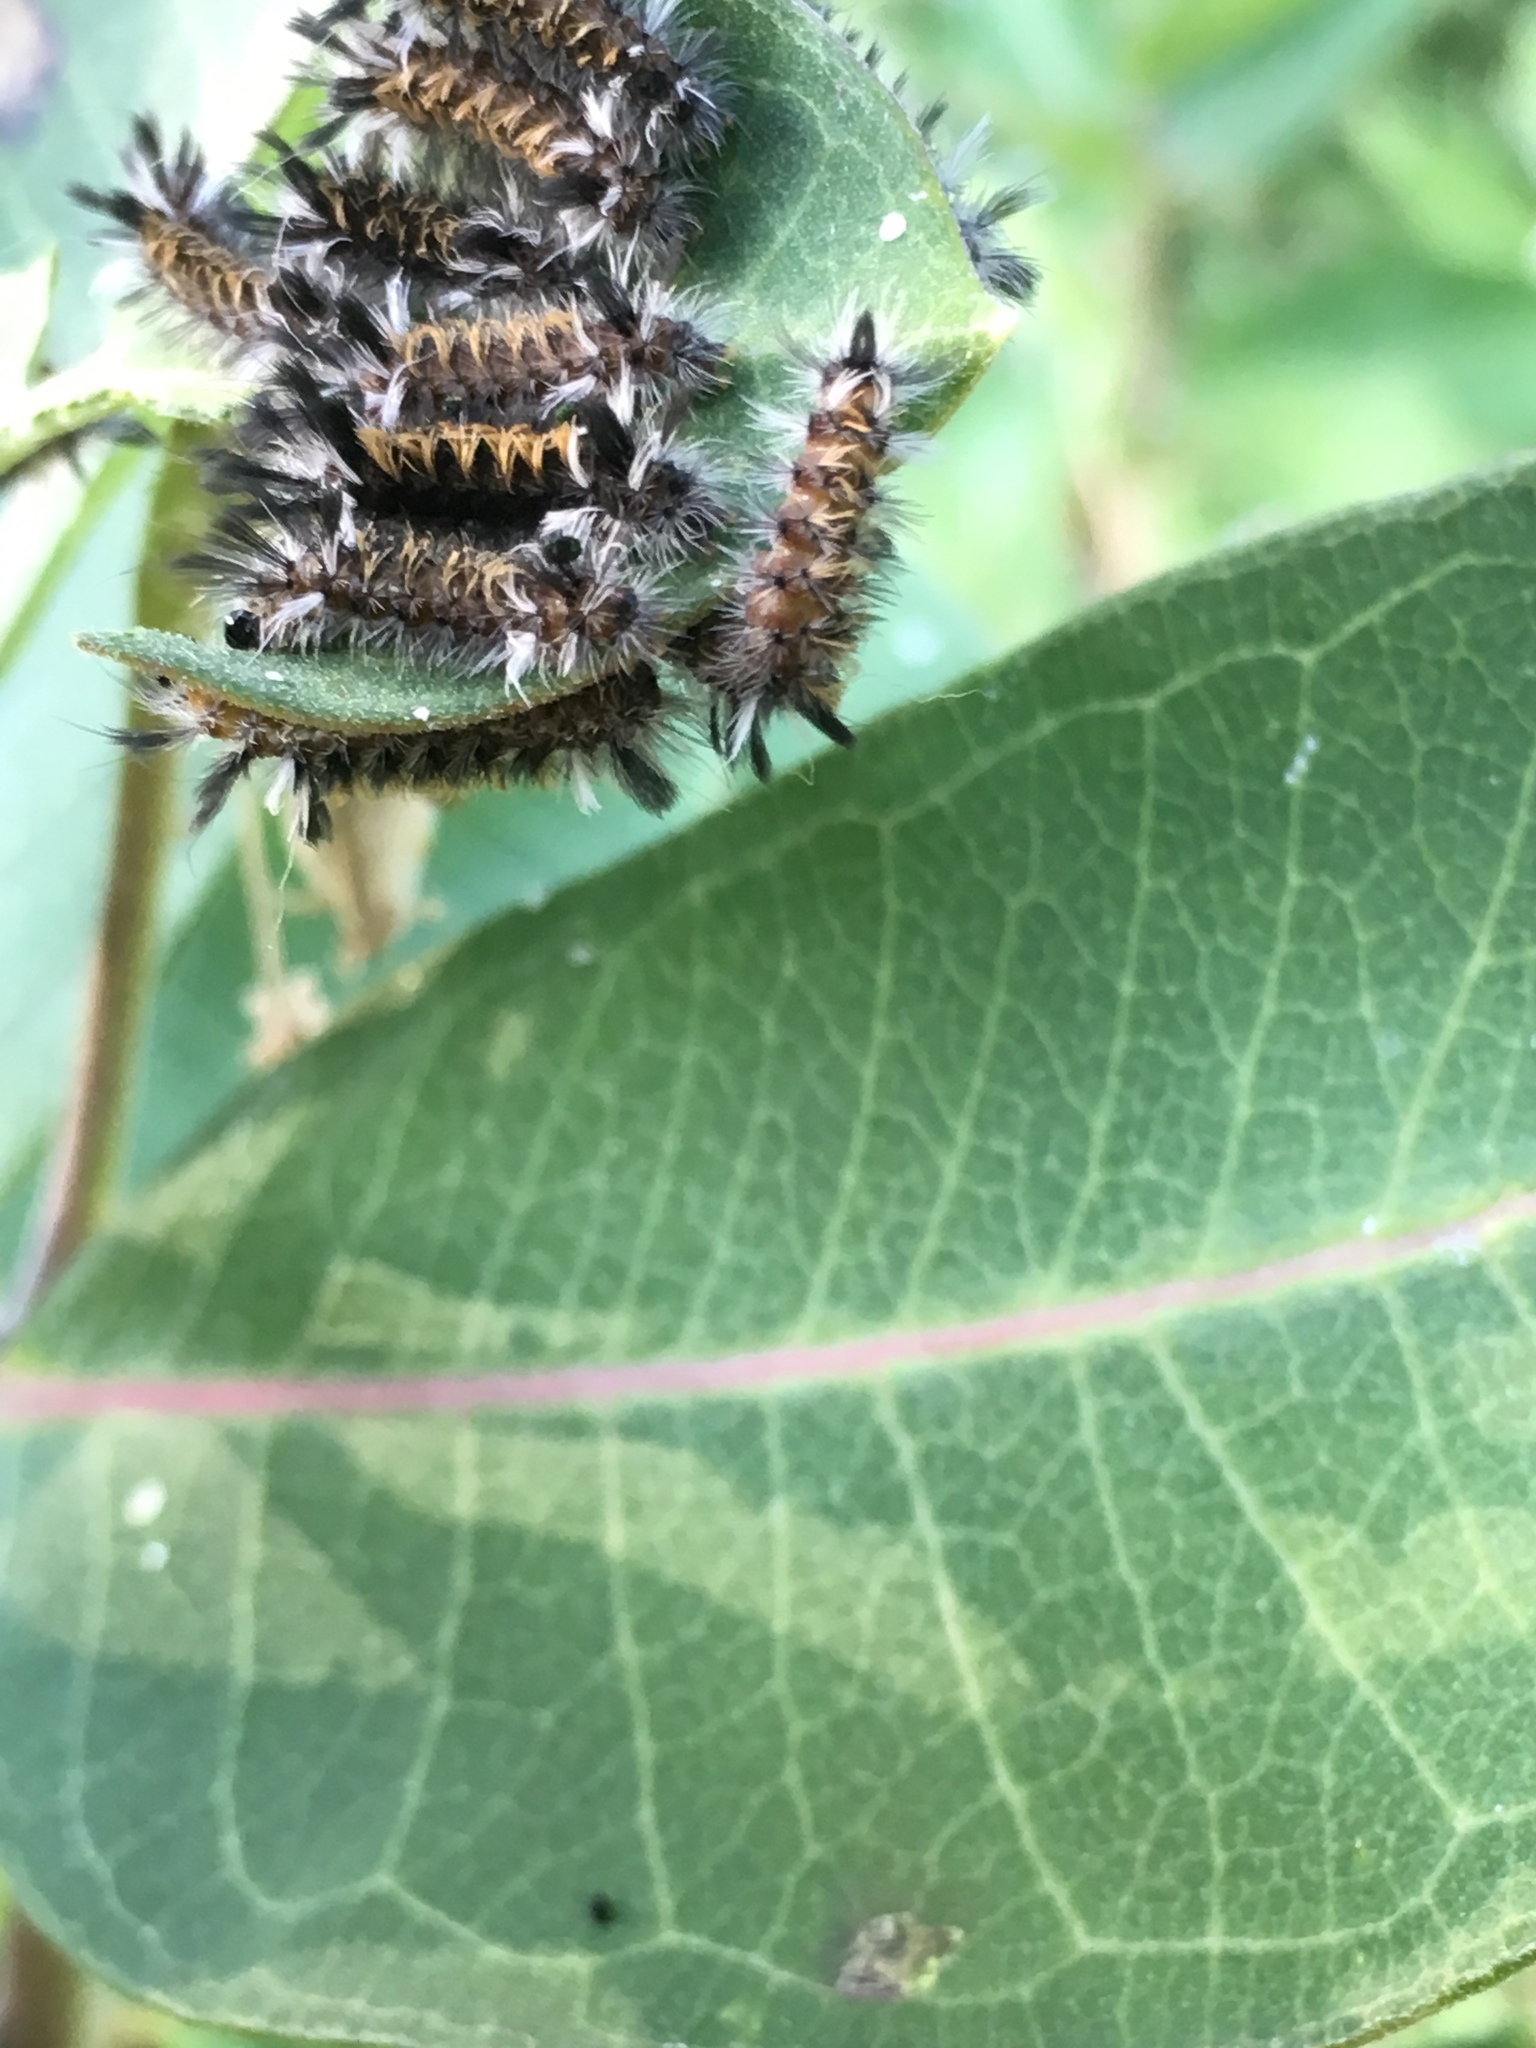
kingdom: Animalia
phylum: Arthropoda
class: Insecta
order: Lepidoptera
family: Erebidae
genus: Euchaetes
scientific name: Euchaetes egle
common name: Milkweed tussock moth
